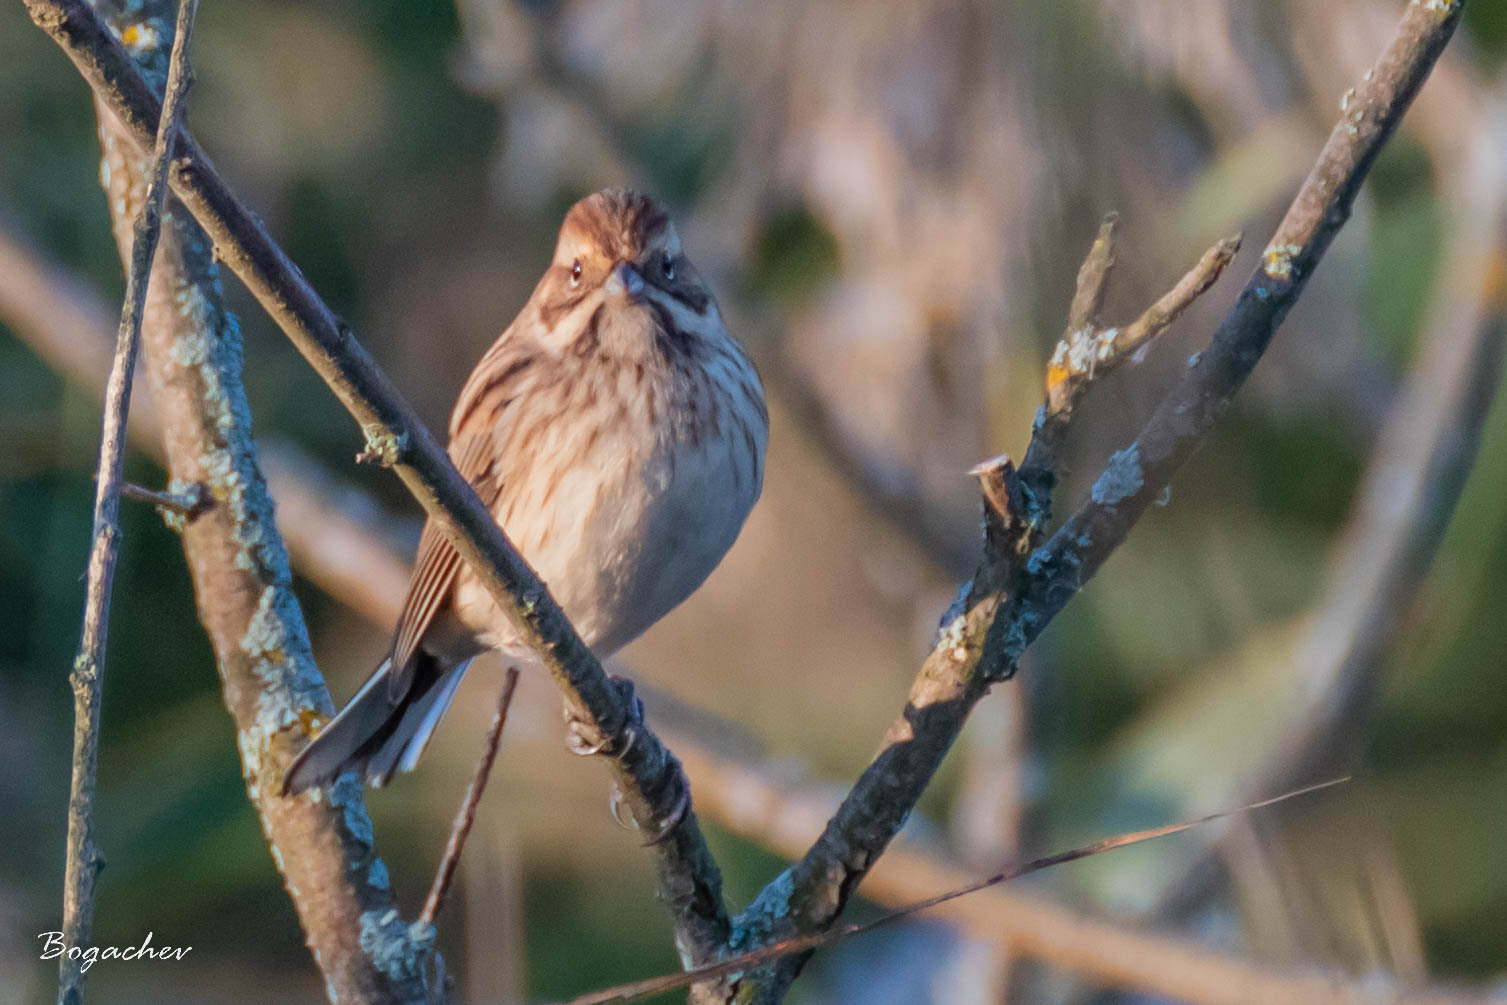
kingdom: Animalia
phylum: Chordata
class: Aves
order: Passeriformes
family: Emberizidae
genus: Emberiza
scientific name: Emberiza schoeniclus
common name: Reed bunting
